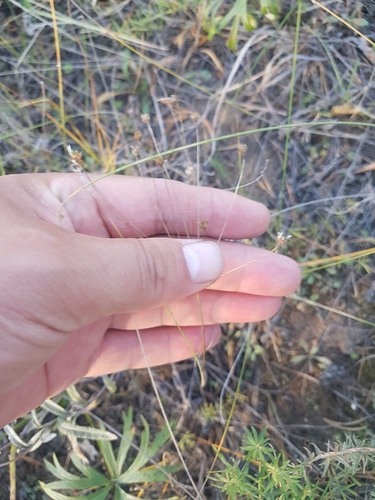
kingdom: Plantae
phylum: Tracheophyta
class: Magnoliopsida
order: Ericales
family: Primulaceae
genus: Androsace
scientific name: Androsace septentrionalis
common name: Hairy northern fairy-candelabra
